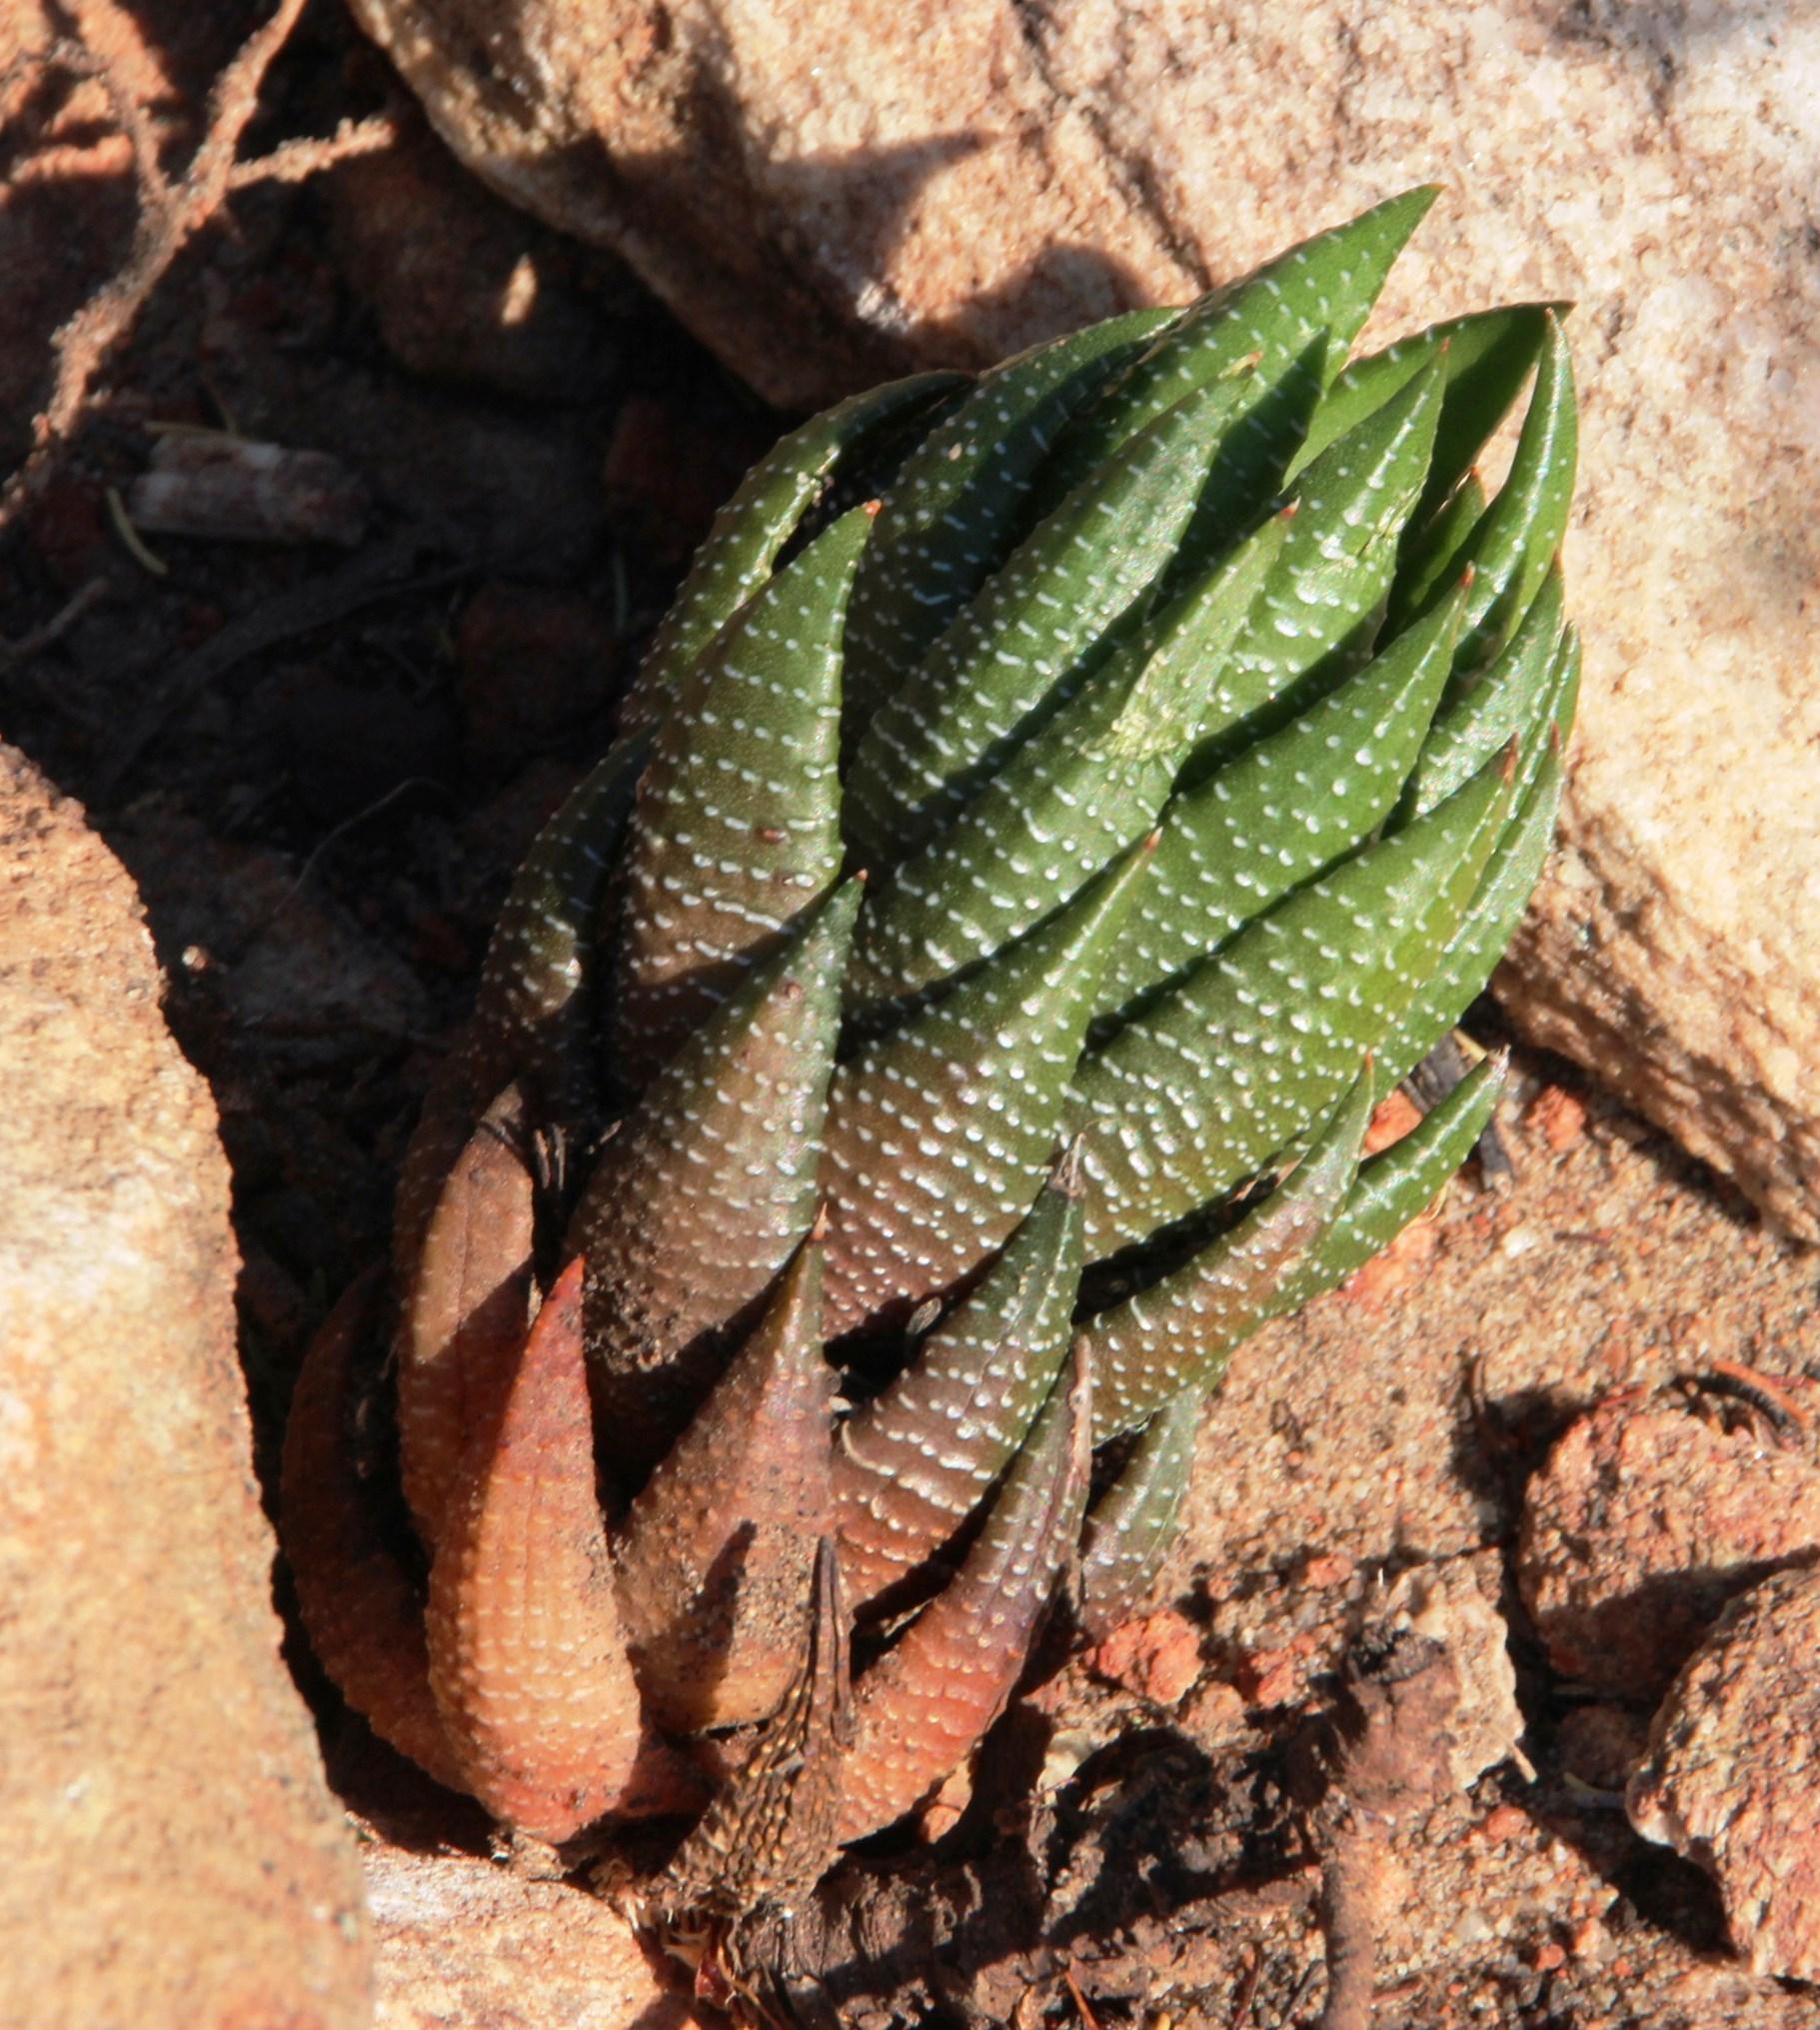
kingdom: Plantae
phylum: Tracheophyta
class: Liliopsida
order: Asparagales
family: Asphodelaceae
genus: Haworthiopsis
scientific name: Haworthiopsis coarctata
